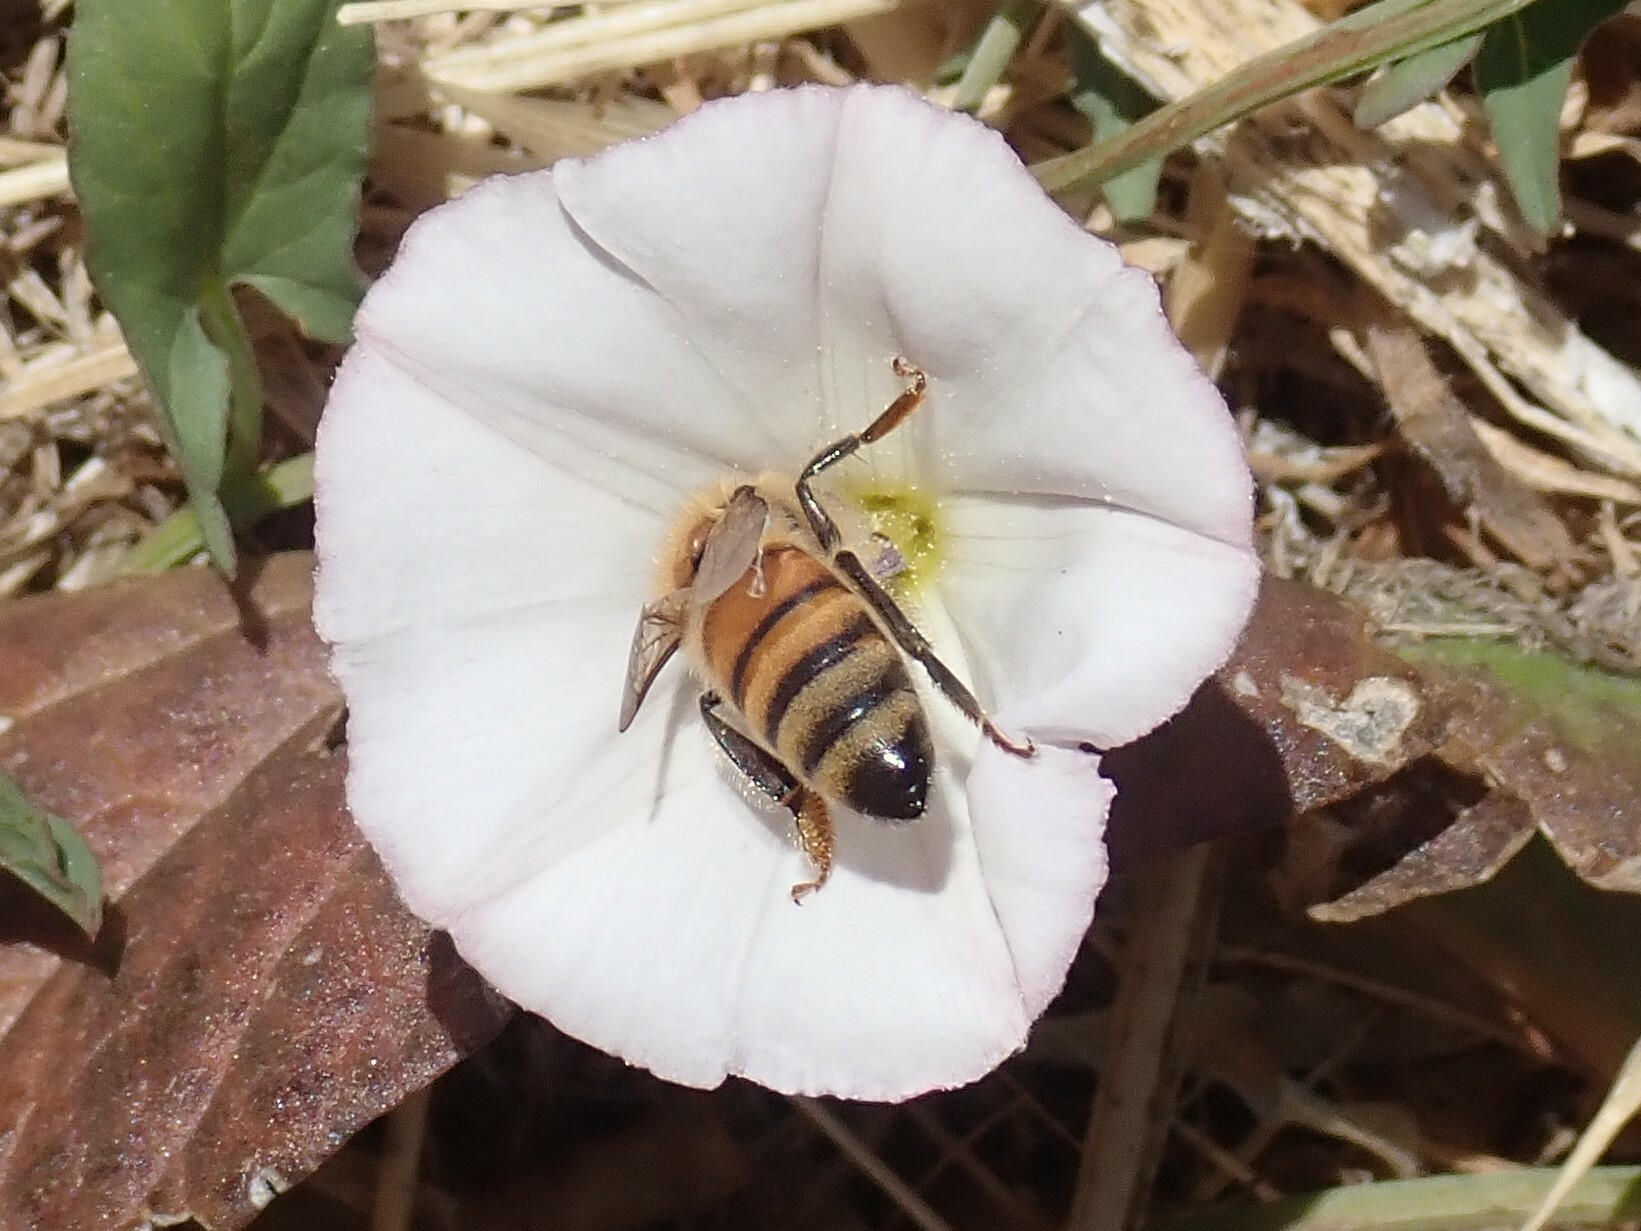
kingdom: Animalia
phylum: Arthropoda
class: Insecta
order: Hymenoptera
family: Apidae
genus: Apis
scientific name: Apis mellifera
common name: Honey bee
